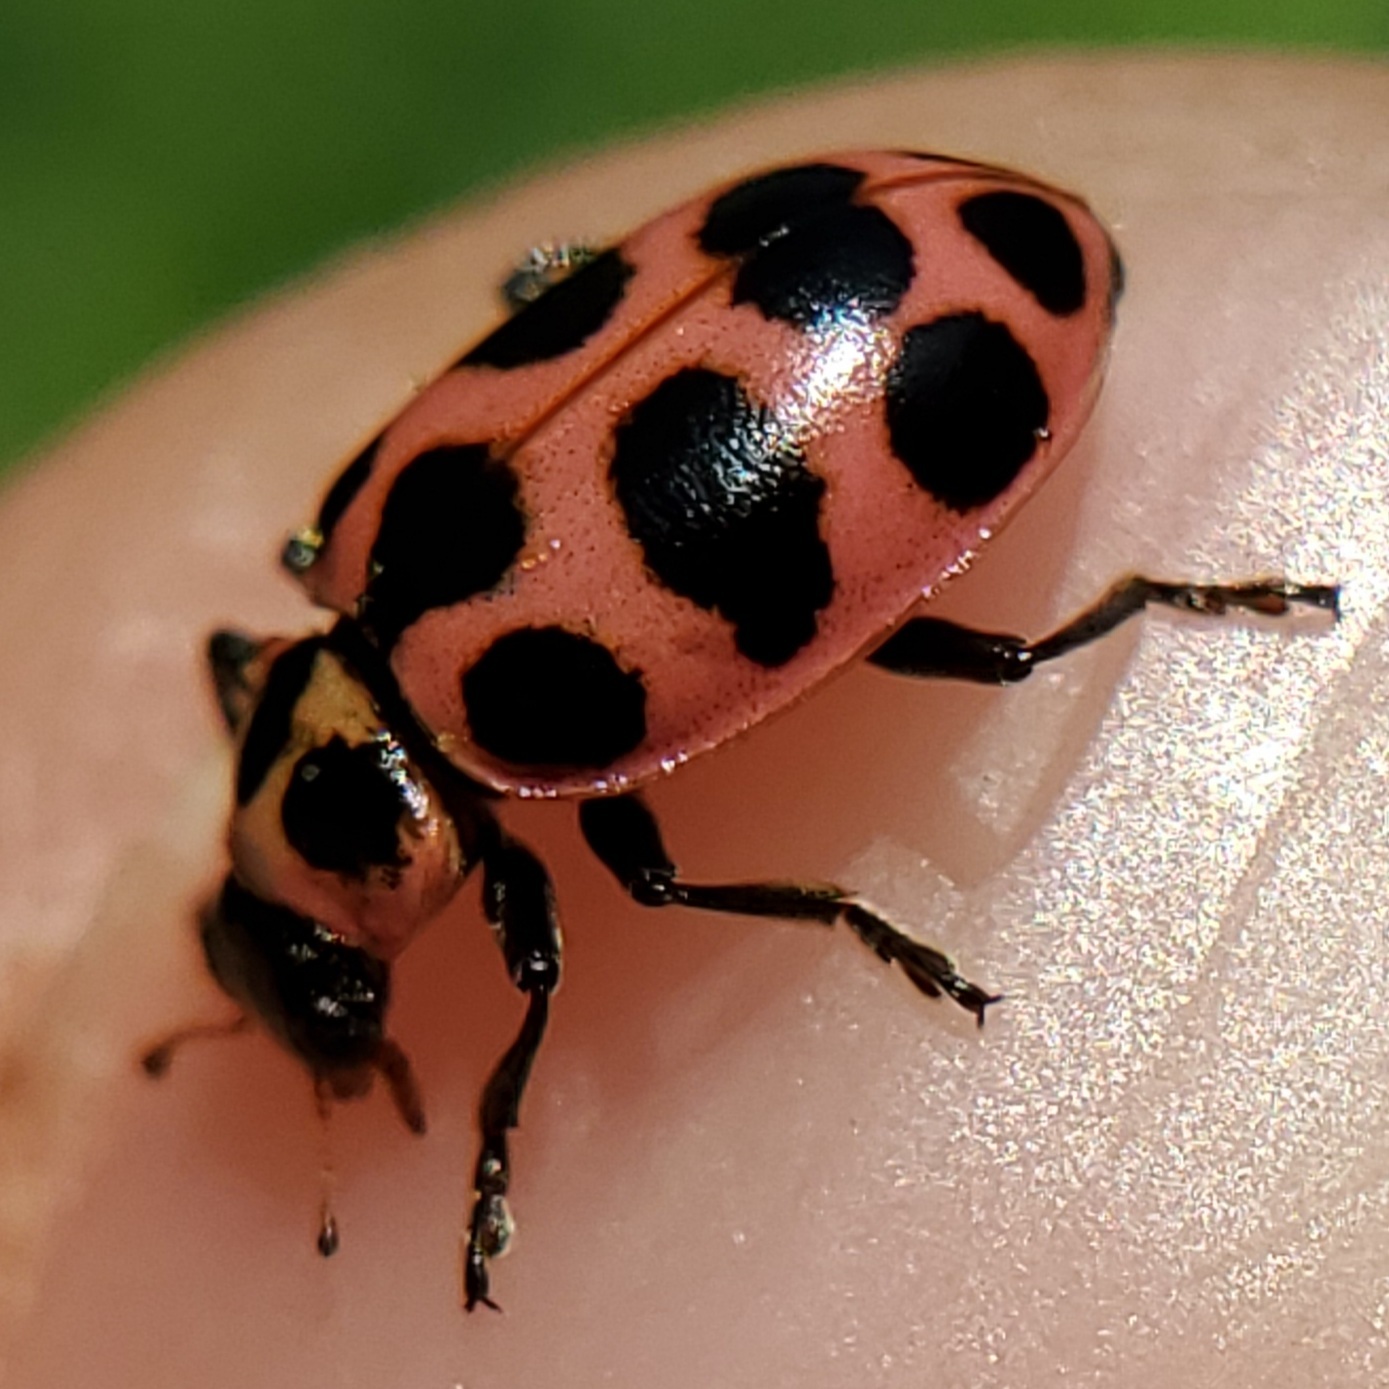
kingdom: Animalia
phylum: Arthropoda
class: Insecta
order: Coleoptera
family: Coccinellidae
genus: Coleomegilla
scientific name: Coleomegilla maculata
